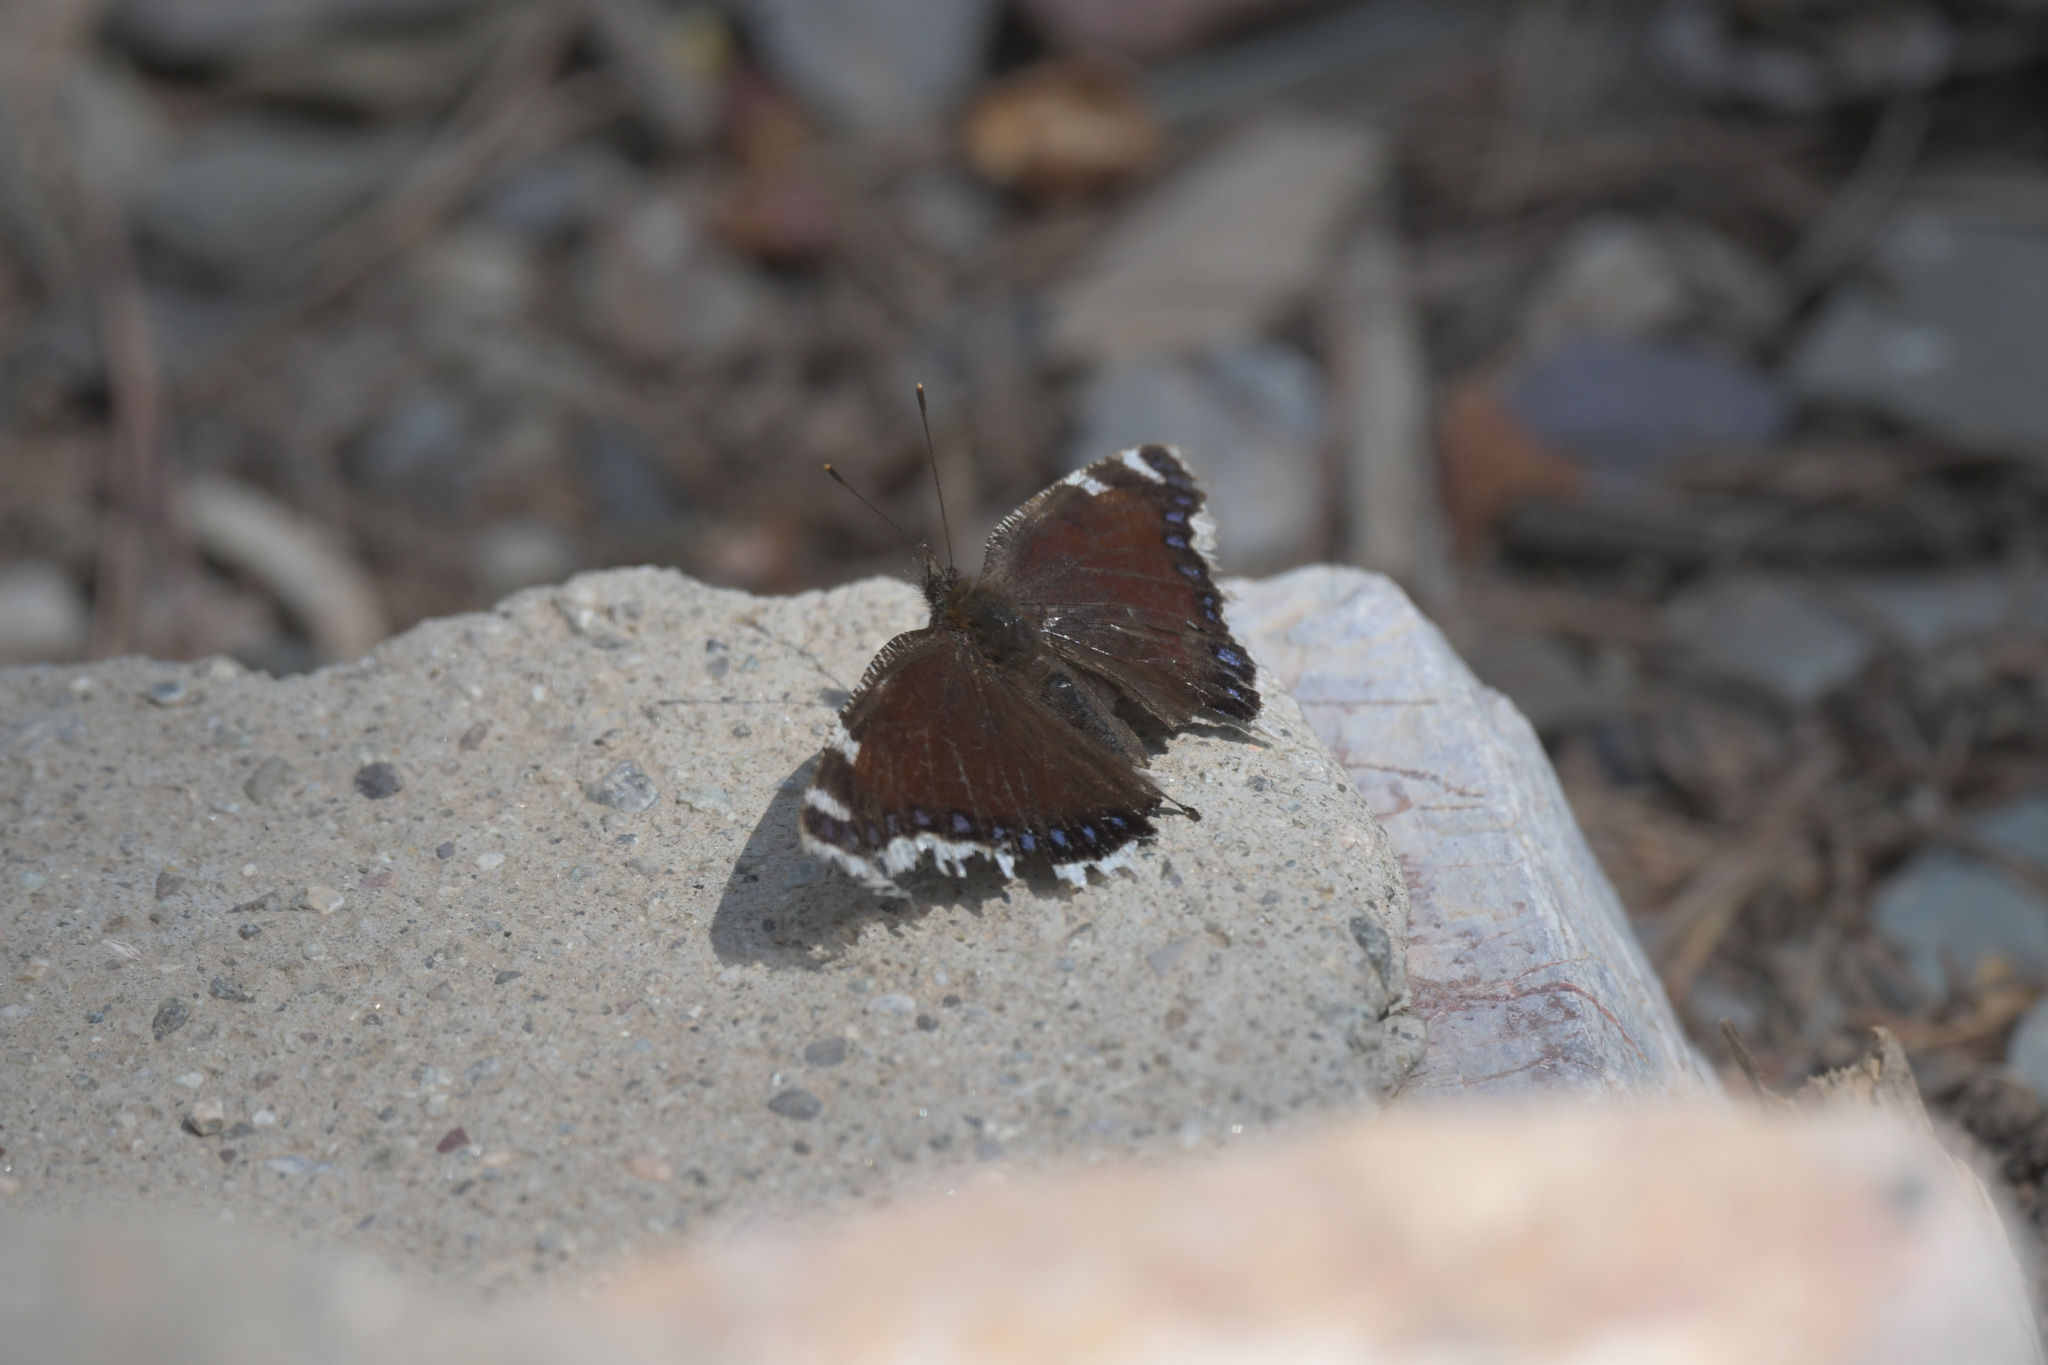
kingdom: Animalia
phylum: Arthropoda
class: Insecta
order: Lepidoptera
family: Nymphalidae
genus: Nymphalis
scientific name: Nymphalis antiopa
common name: Camberwell beauty
